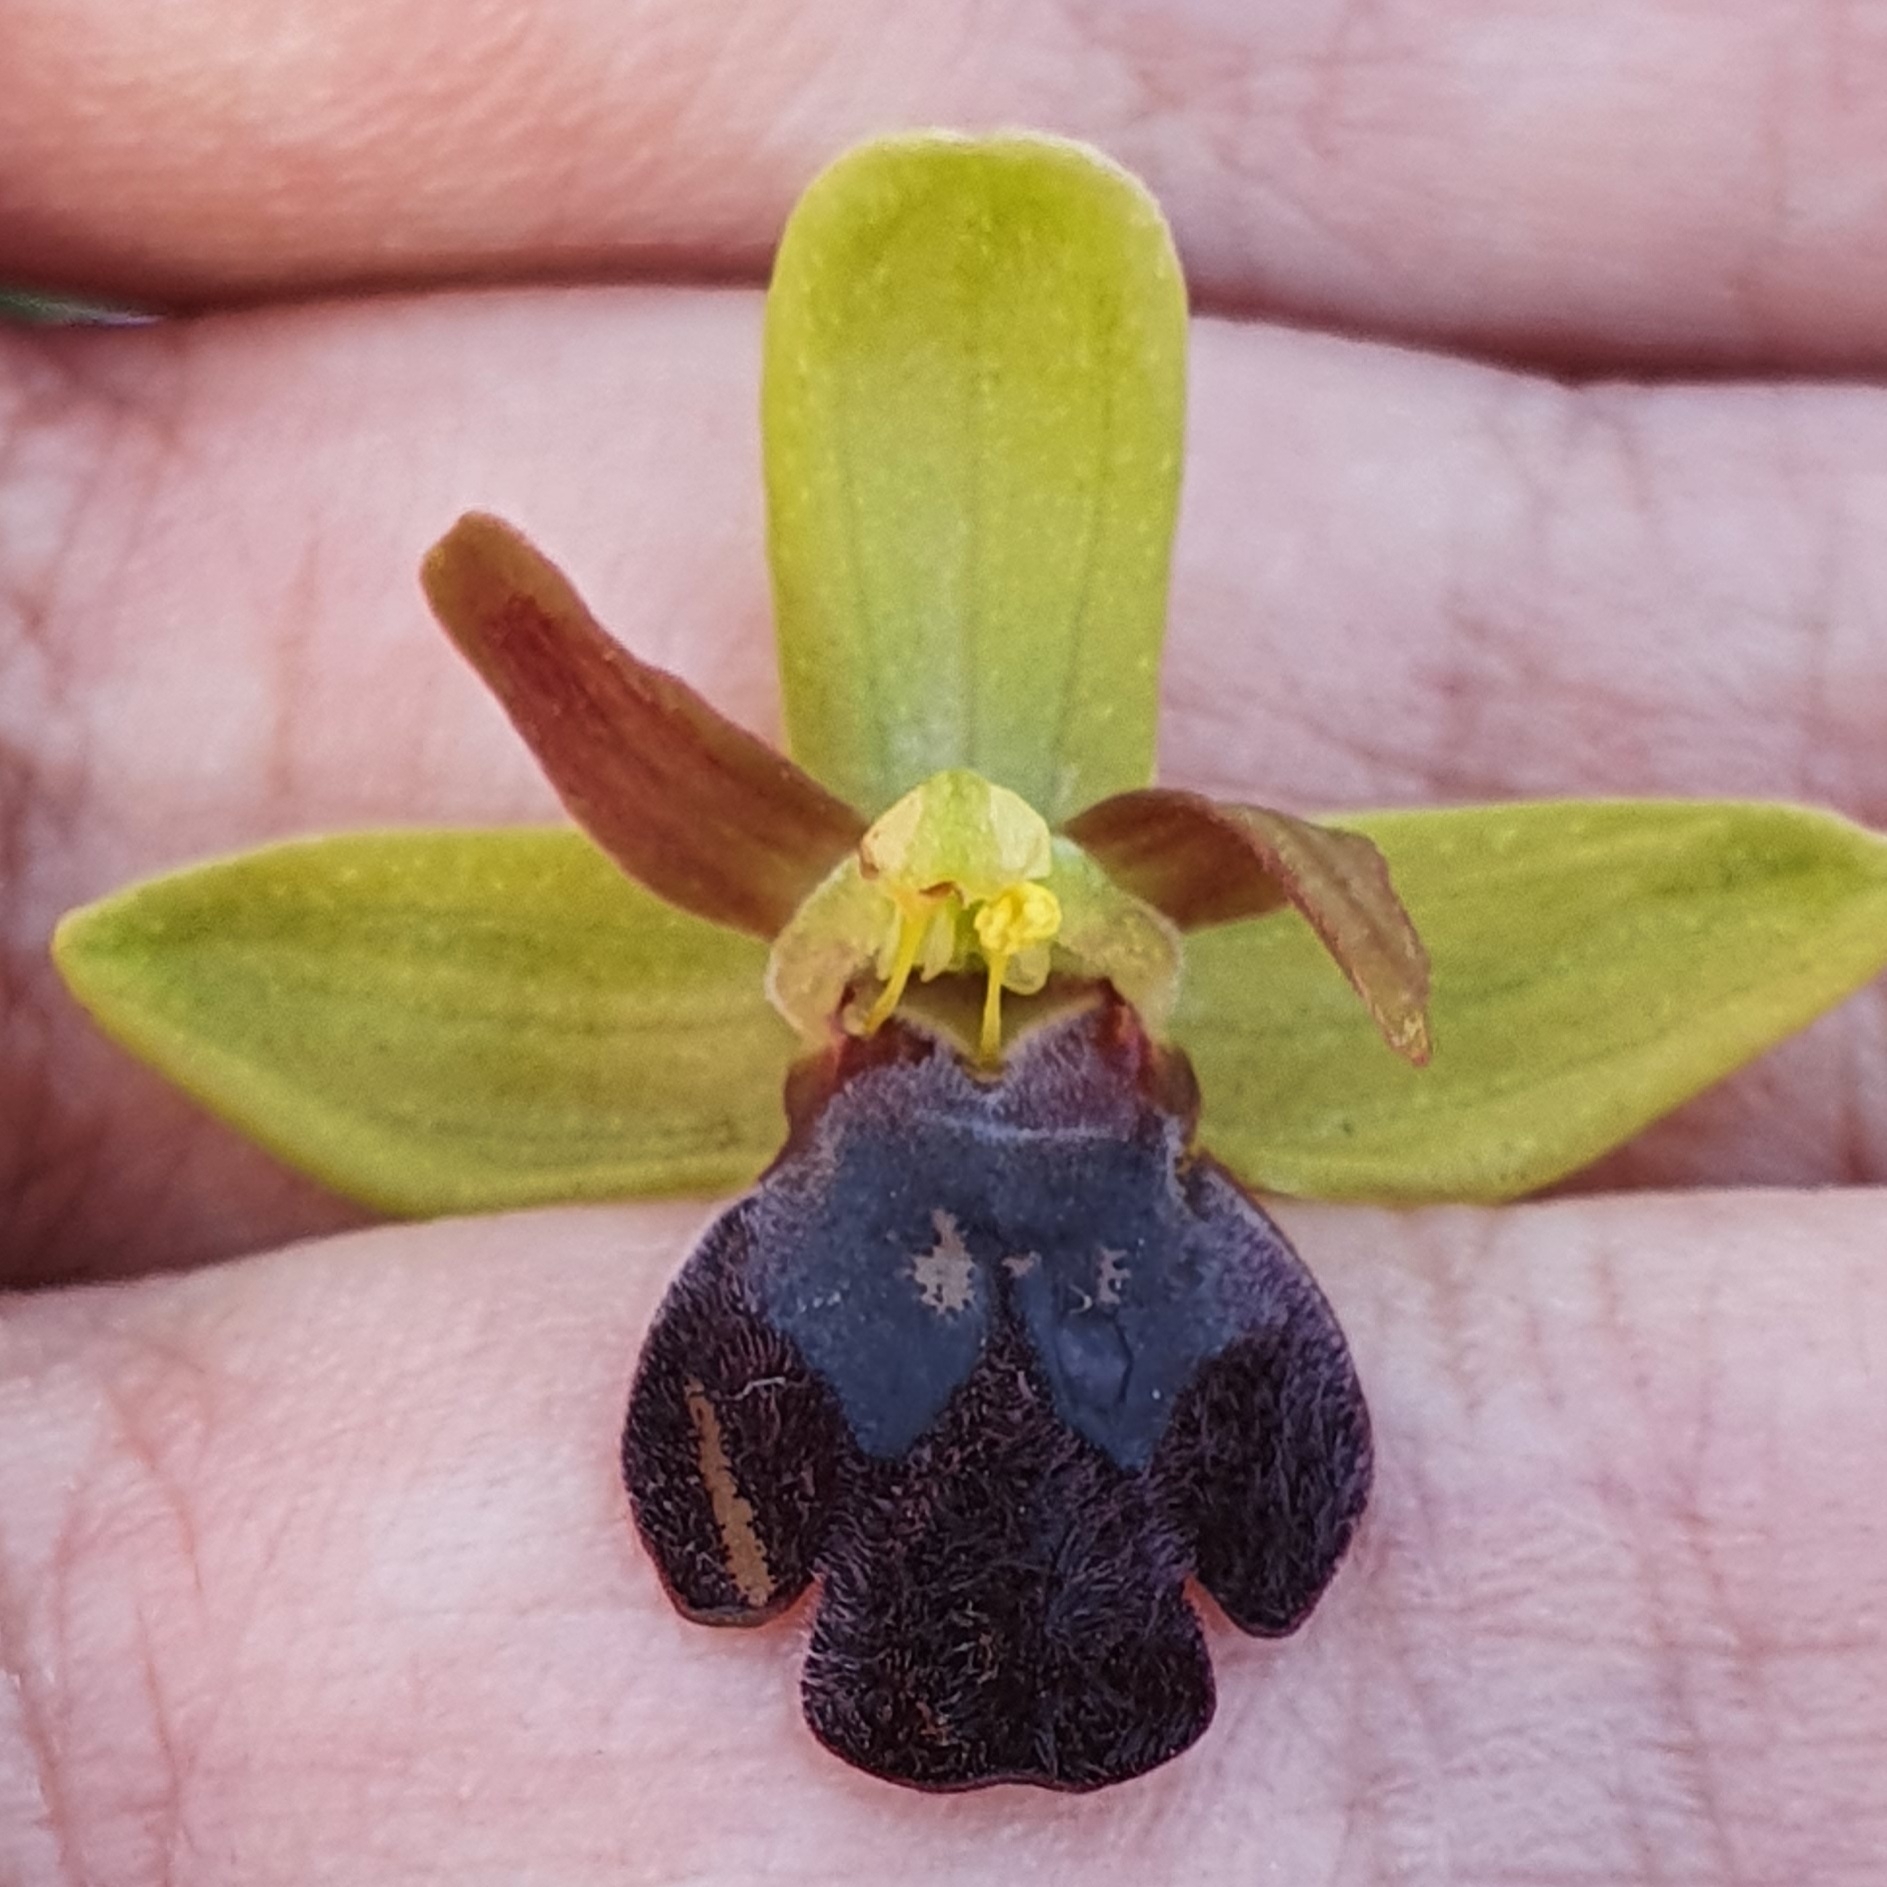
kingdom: Plantae
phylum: Tracheophyta
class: Liliopsida
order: Asparagales
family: Orchidaceae
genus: Ophrys
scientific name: Ophrys fusca
